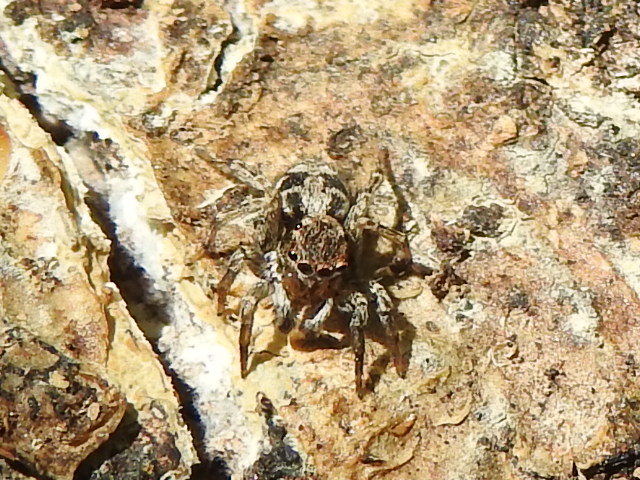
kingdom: Animalia
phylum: Arthropoda
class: Arachnida
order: Araneae
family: Salticidae
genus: Naphrys
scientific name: Naphrys pulex
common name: Flea jumping spider
